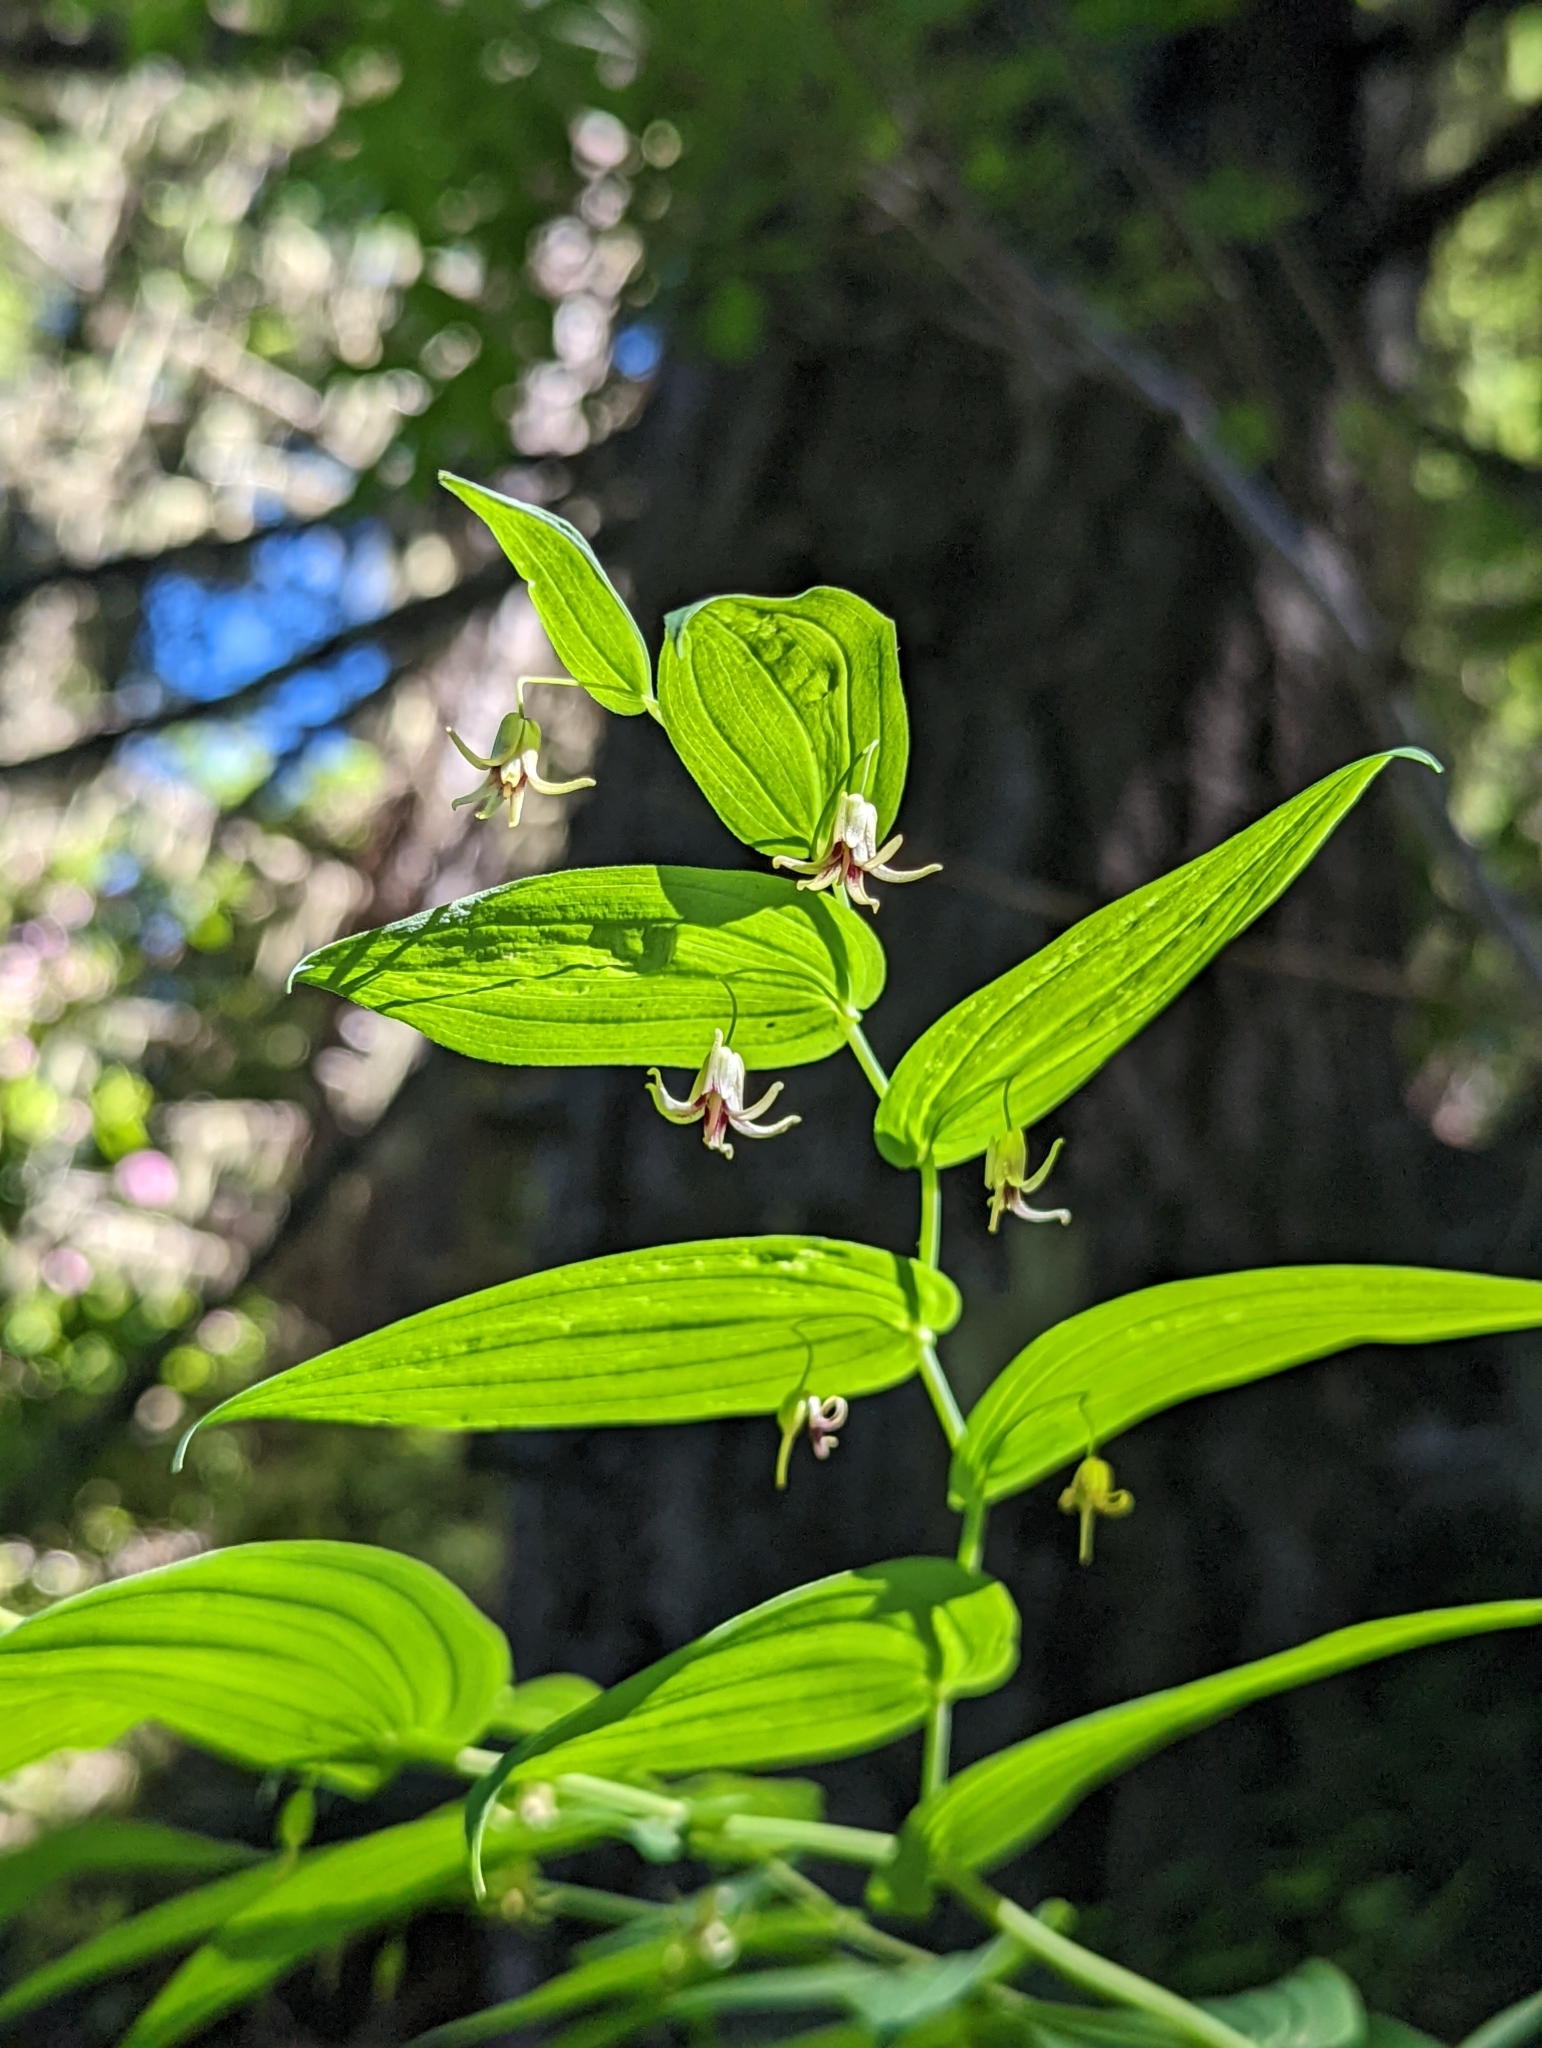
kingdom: Plantae
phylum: Tracheophyta
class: Liliopsida
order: Liliales
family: Liliaceae
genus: Streptopus
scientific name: Streptopus amplexifolius
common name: Clasp twisted stalk
